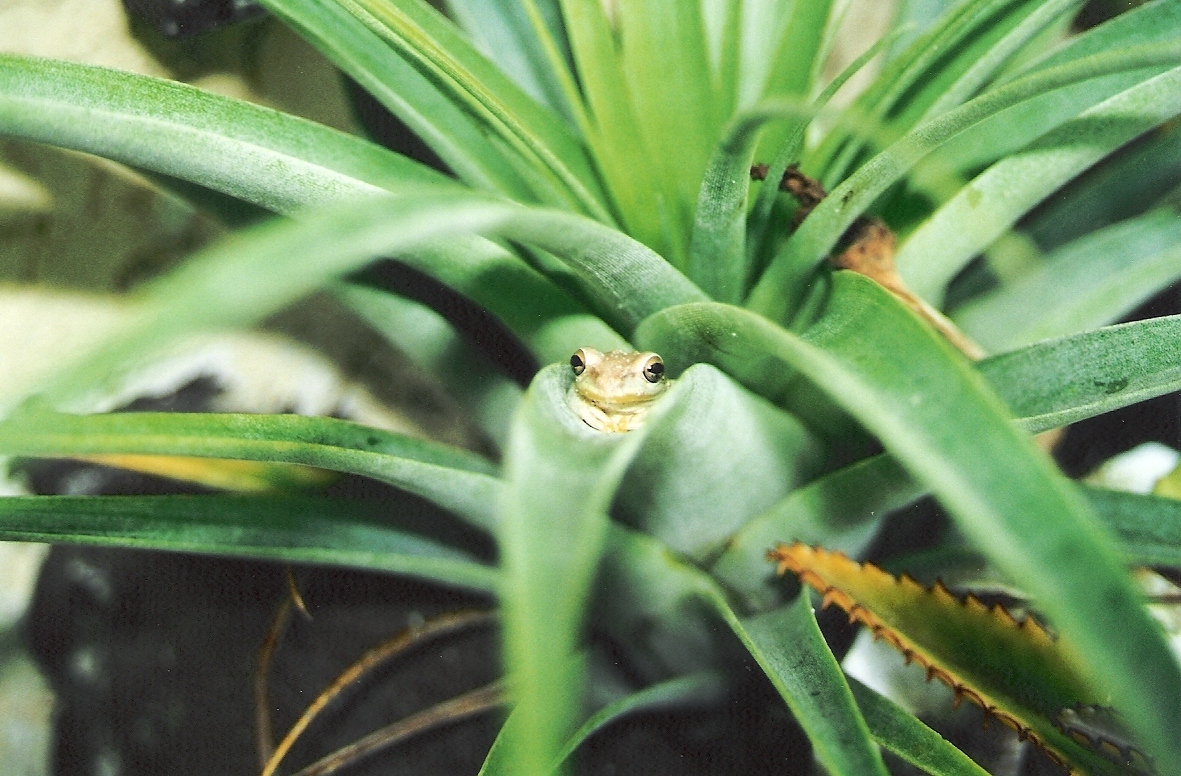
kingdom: Animalia
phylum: Chordata
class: Amphibia
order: Anura
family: Hylidae
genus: Osteopilus
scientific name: Osteopilus septentrionalis
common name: Cuban treefrog
